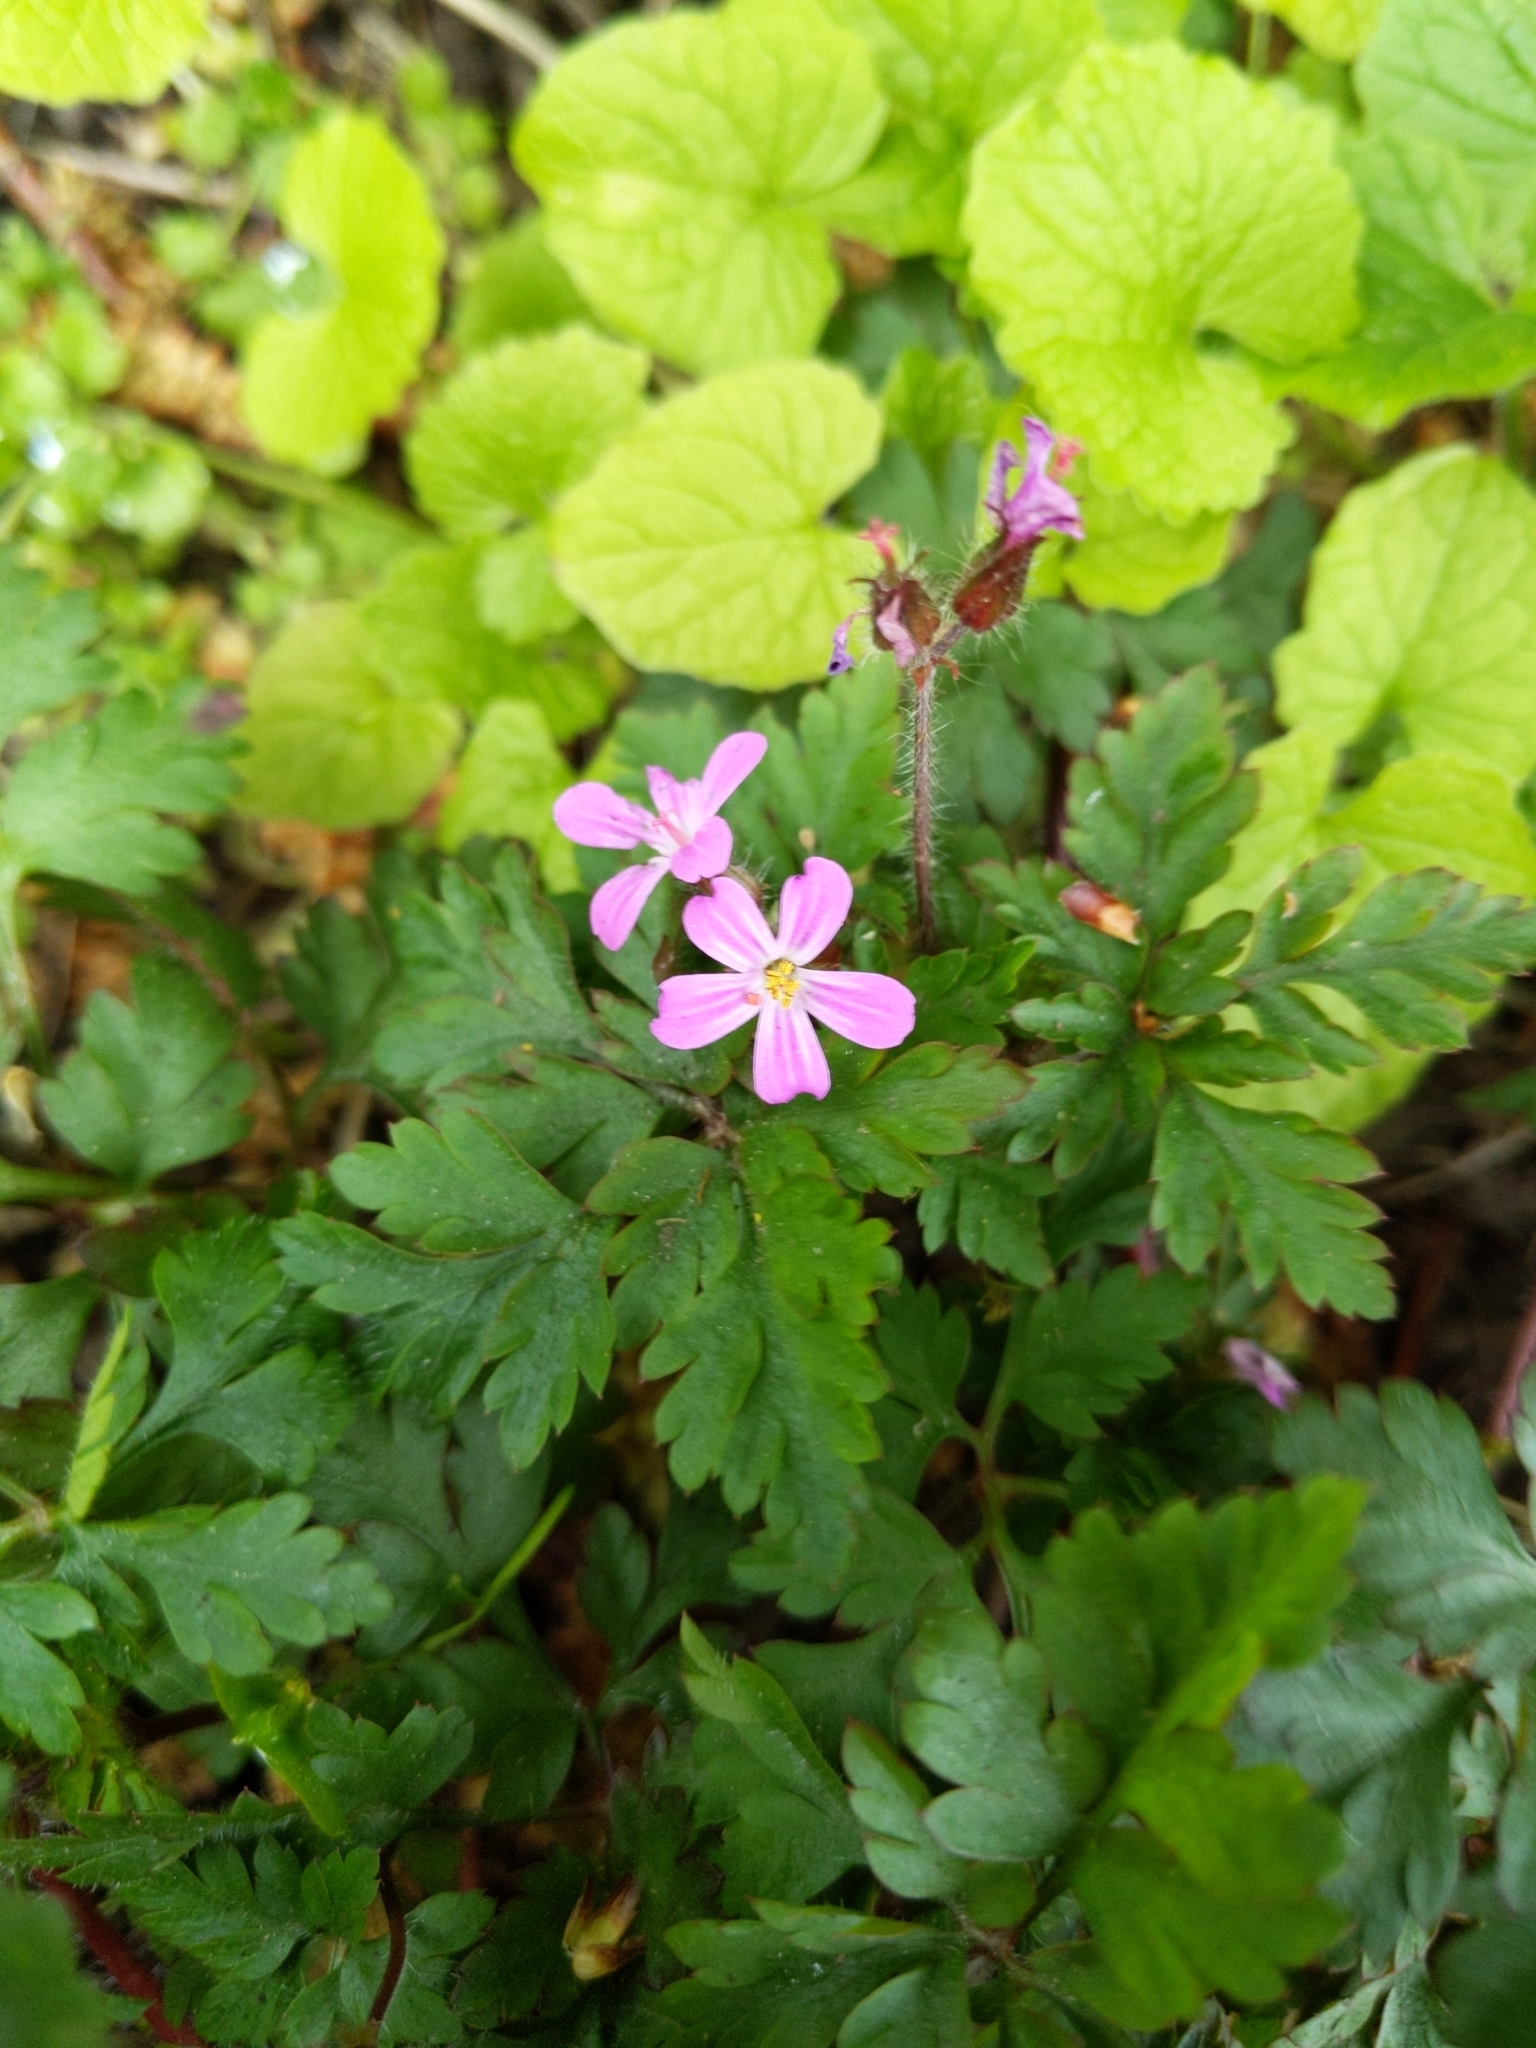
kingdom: Plantae
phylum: Tracheophyta
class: Magnoliopsida
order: Geraniales
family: Geraniaceae
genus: Geranium
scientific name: Geranium robertianum
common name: Herb-robert
